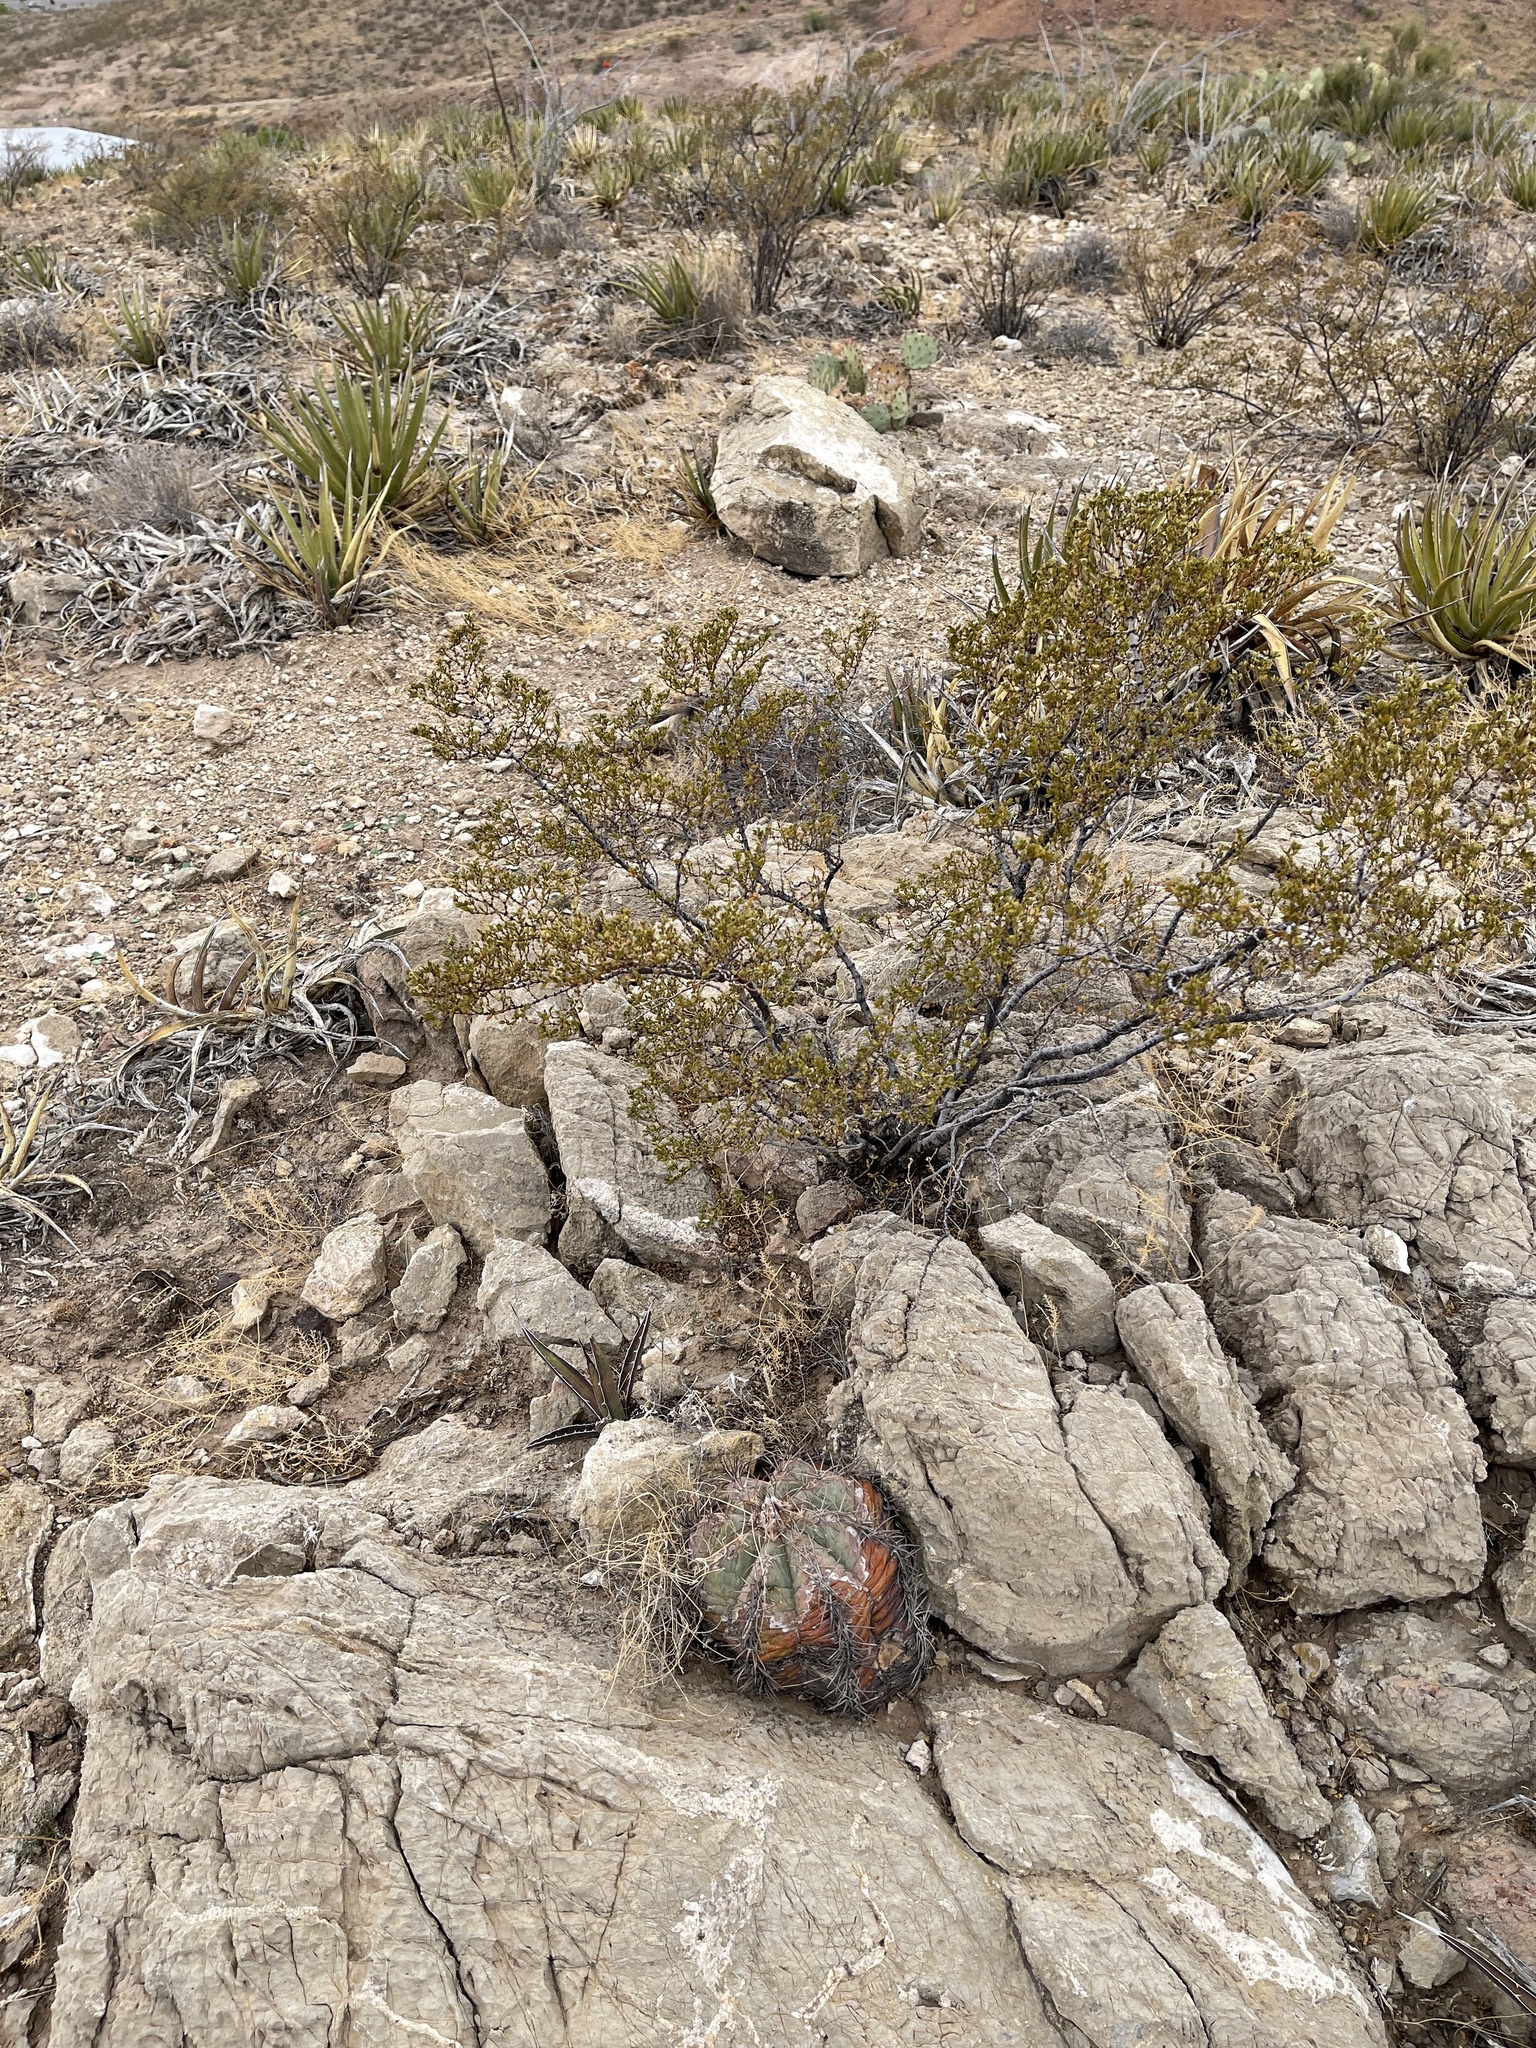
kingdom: Plantae
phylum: Tracheophyta
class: Magnoliopsida
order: Caryophyllales
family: Cactaceae
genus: Echinocactus
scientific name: Echinocactus horizonthalonius
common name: Devilshead
